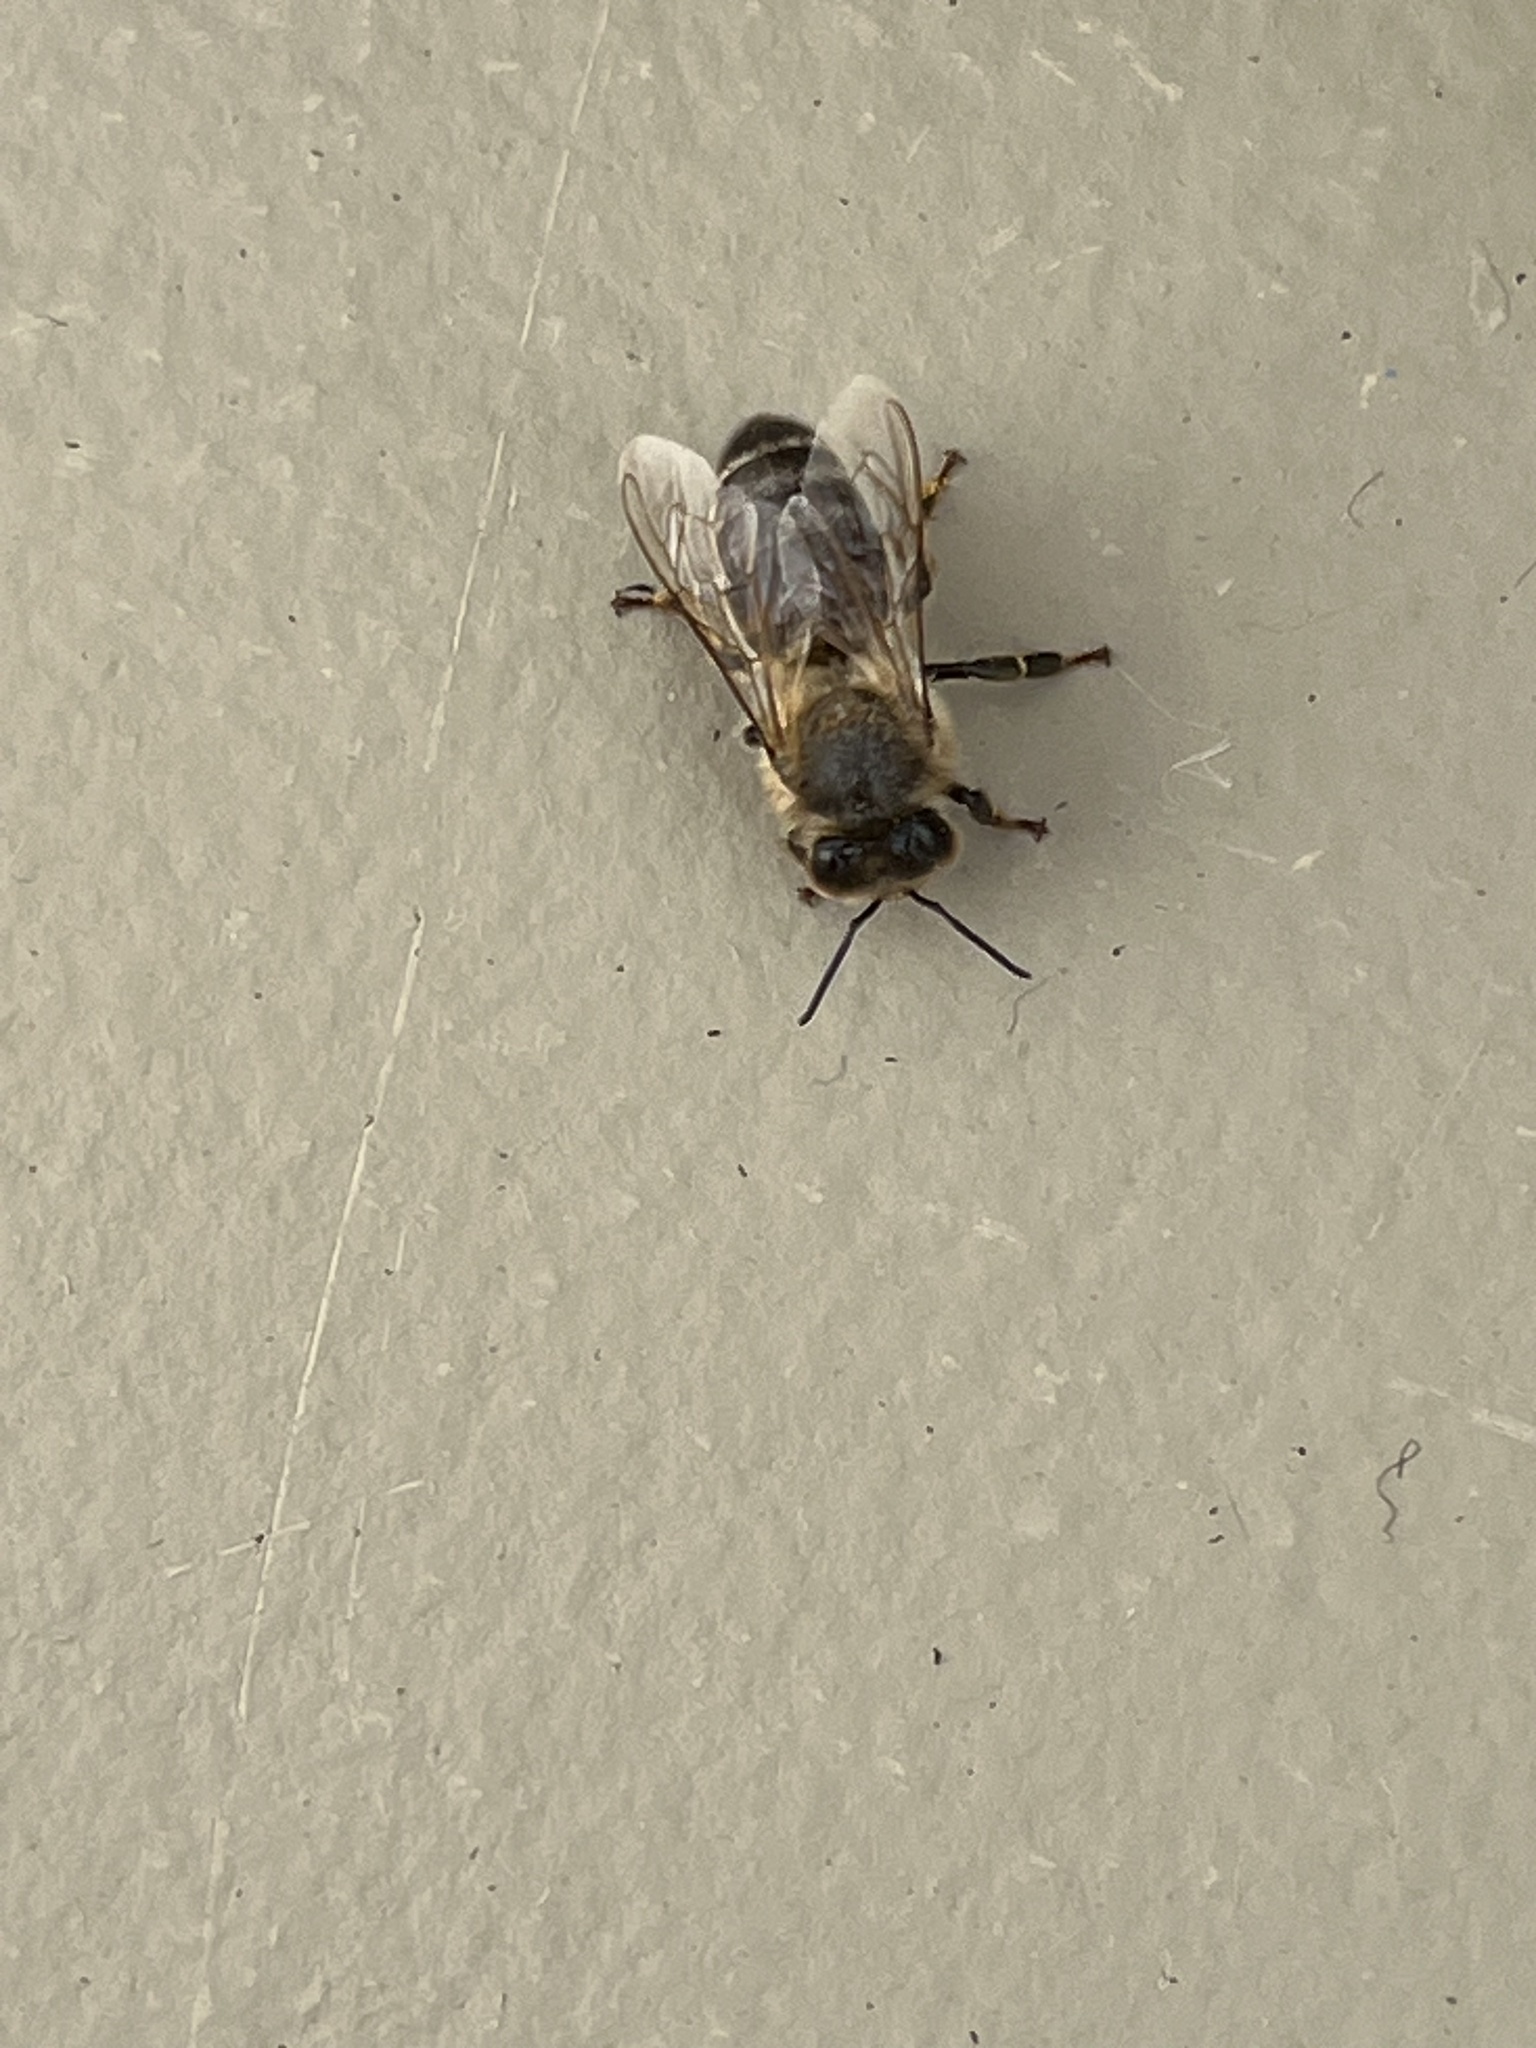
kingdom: Animalia
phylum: Arthropoda
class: Insecta
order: Hymenoptera
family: Apidae
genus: Apis
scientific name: Apis mellifera
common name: Honey bee
